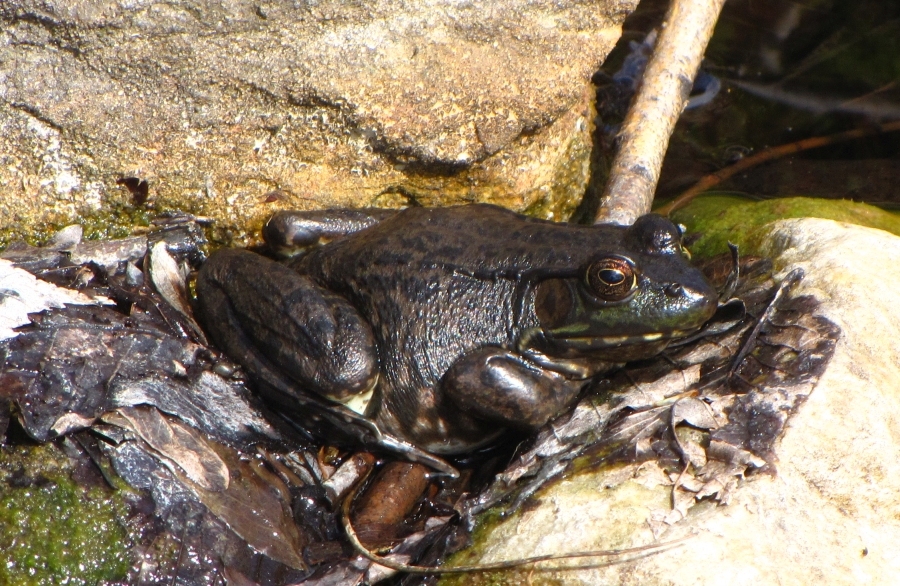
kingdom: Animalia
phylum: Chordata
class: Amphibia
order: Anura
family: Ranidae
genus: Lithobates
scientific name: Lithobates clamitans
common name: Green frog
